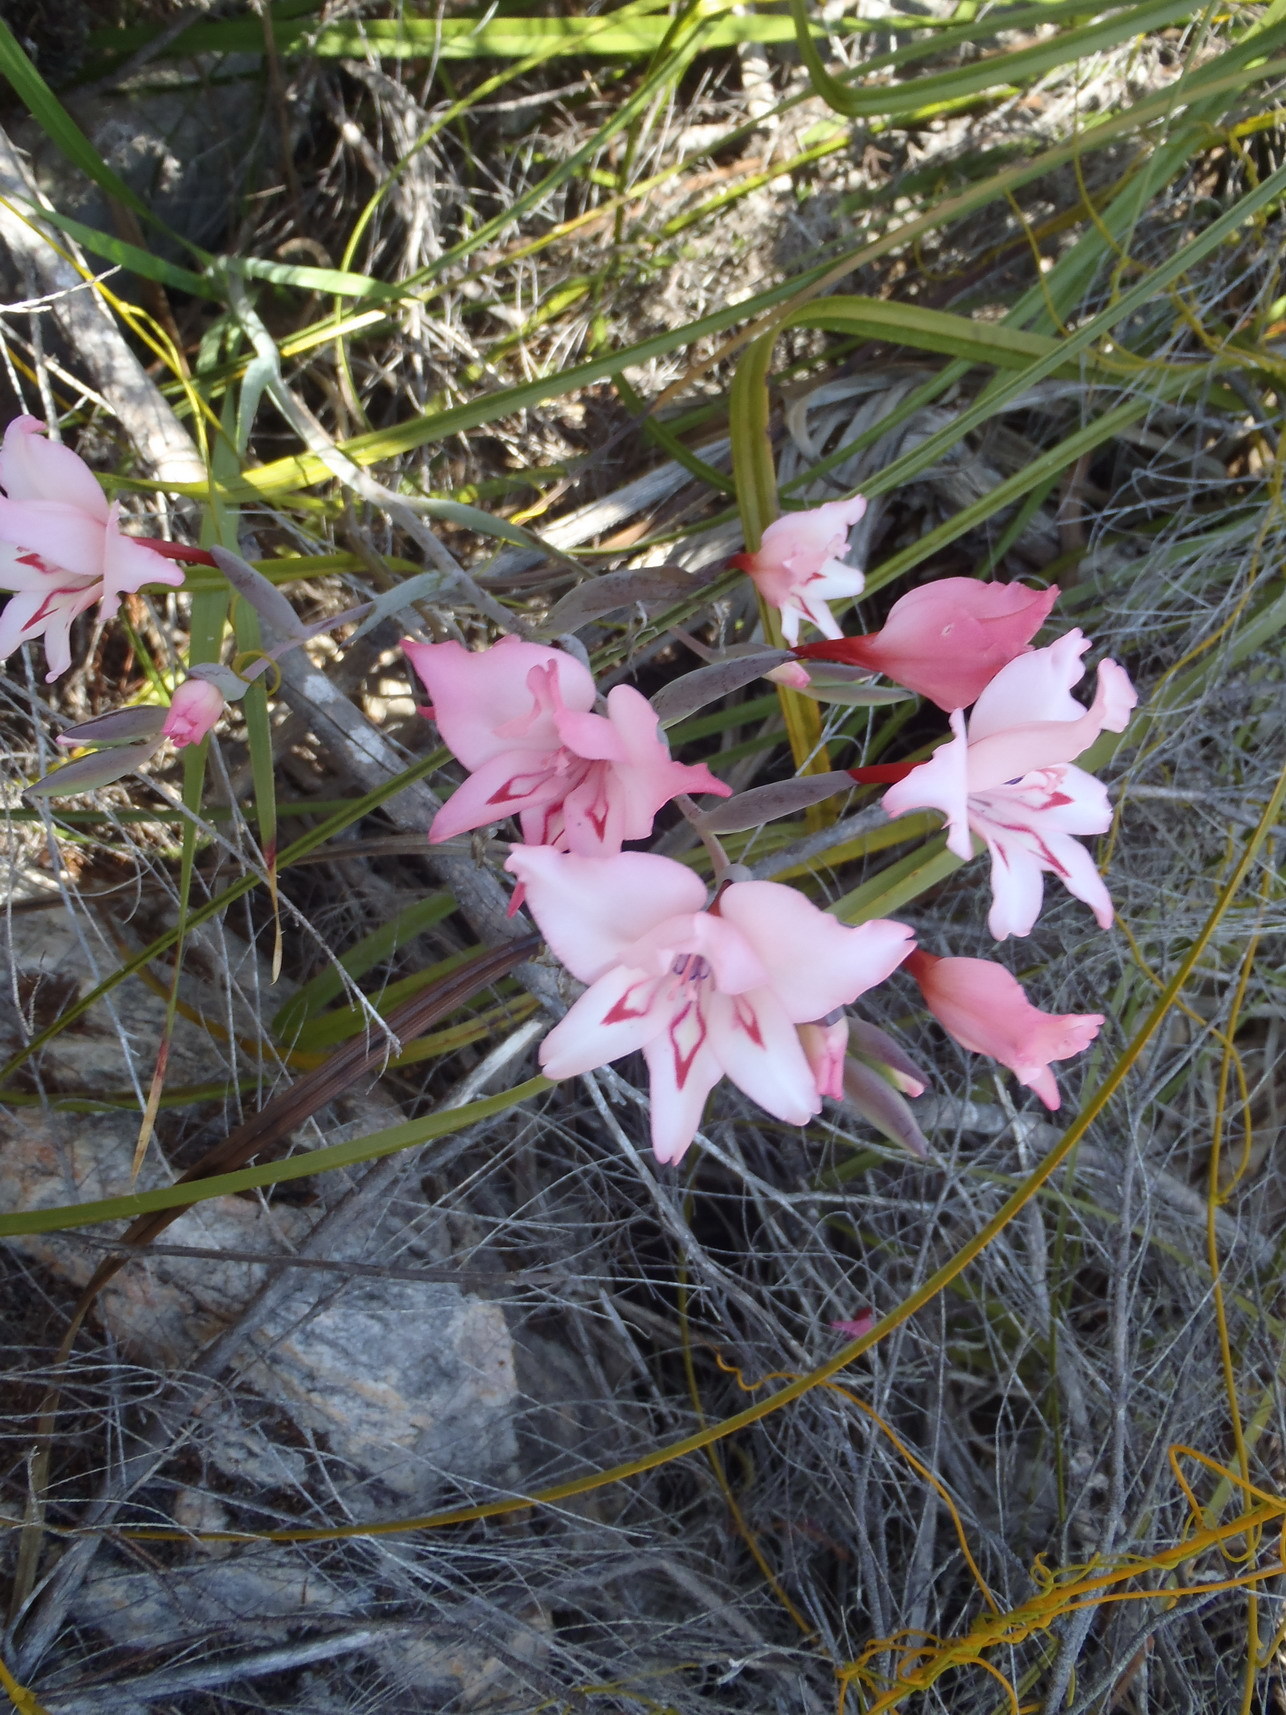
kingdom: Plantae
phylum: Tracheophyta
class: Liliopsida
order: Asparagales
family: Iridaceae
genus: Gladiolus
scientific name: Gladiolus carneus
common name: Painted-lady
